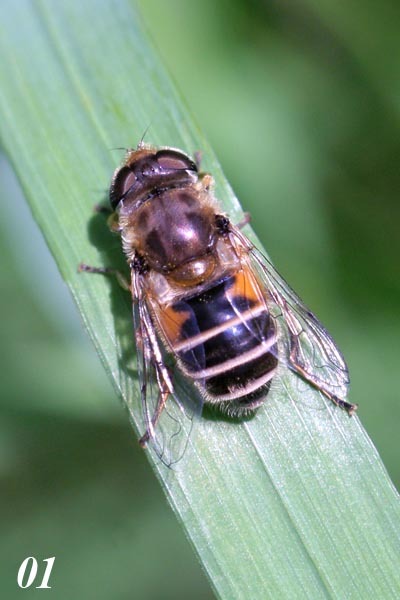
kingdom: Animalia
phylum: Arthropoda
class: Insecta
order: Diptera
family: Syrphidae
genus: Eristalis
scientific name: Eristalis arbustorum
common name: Hover fly
